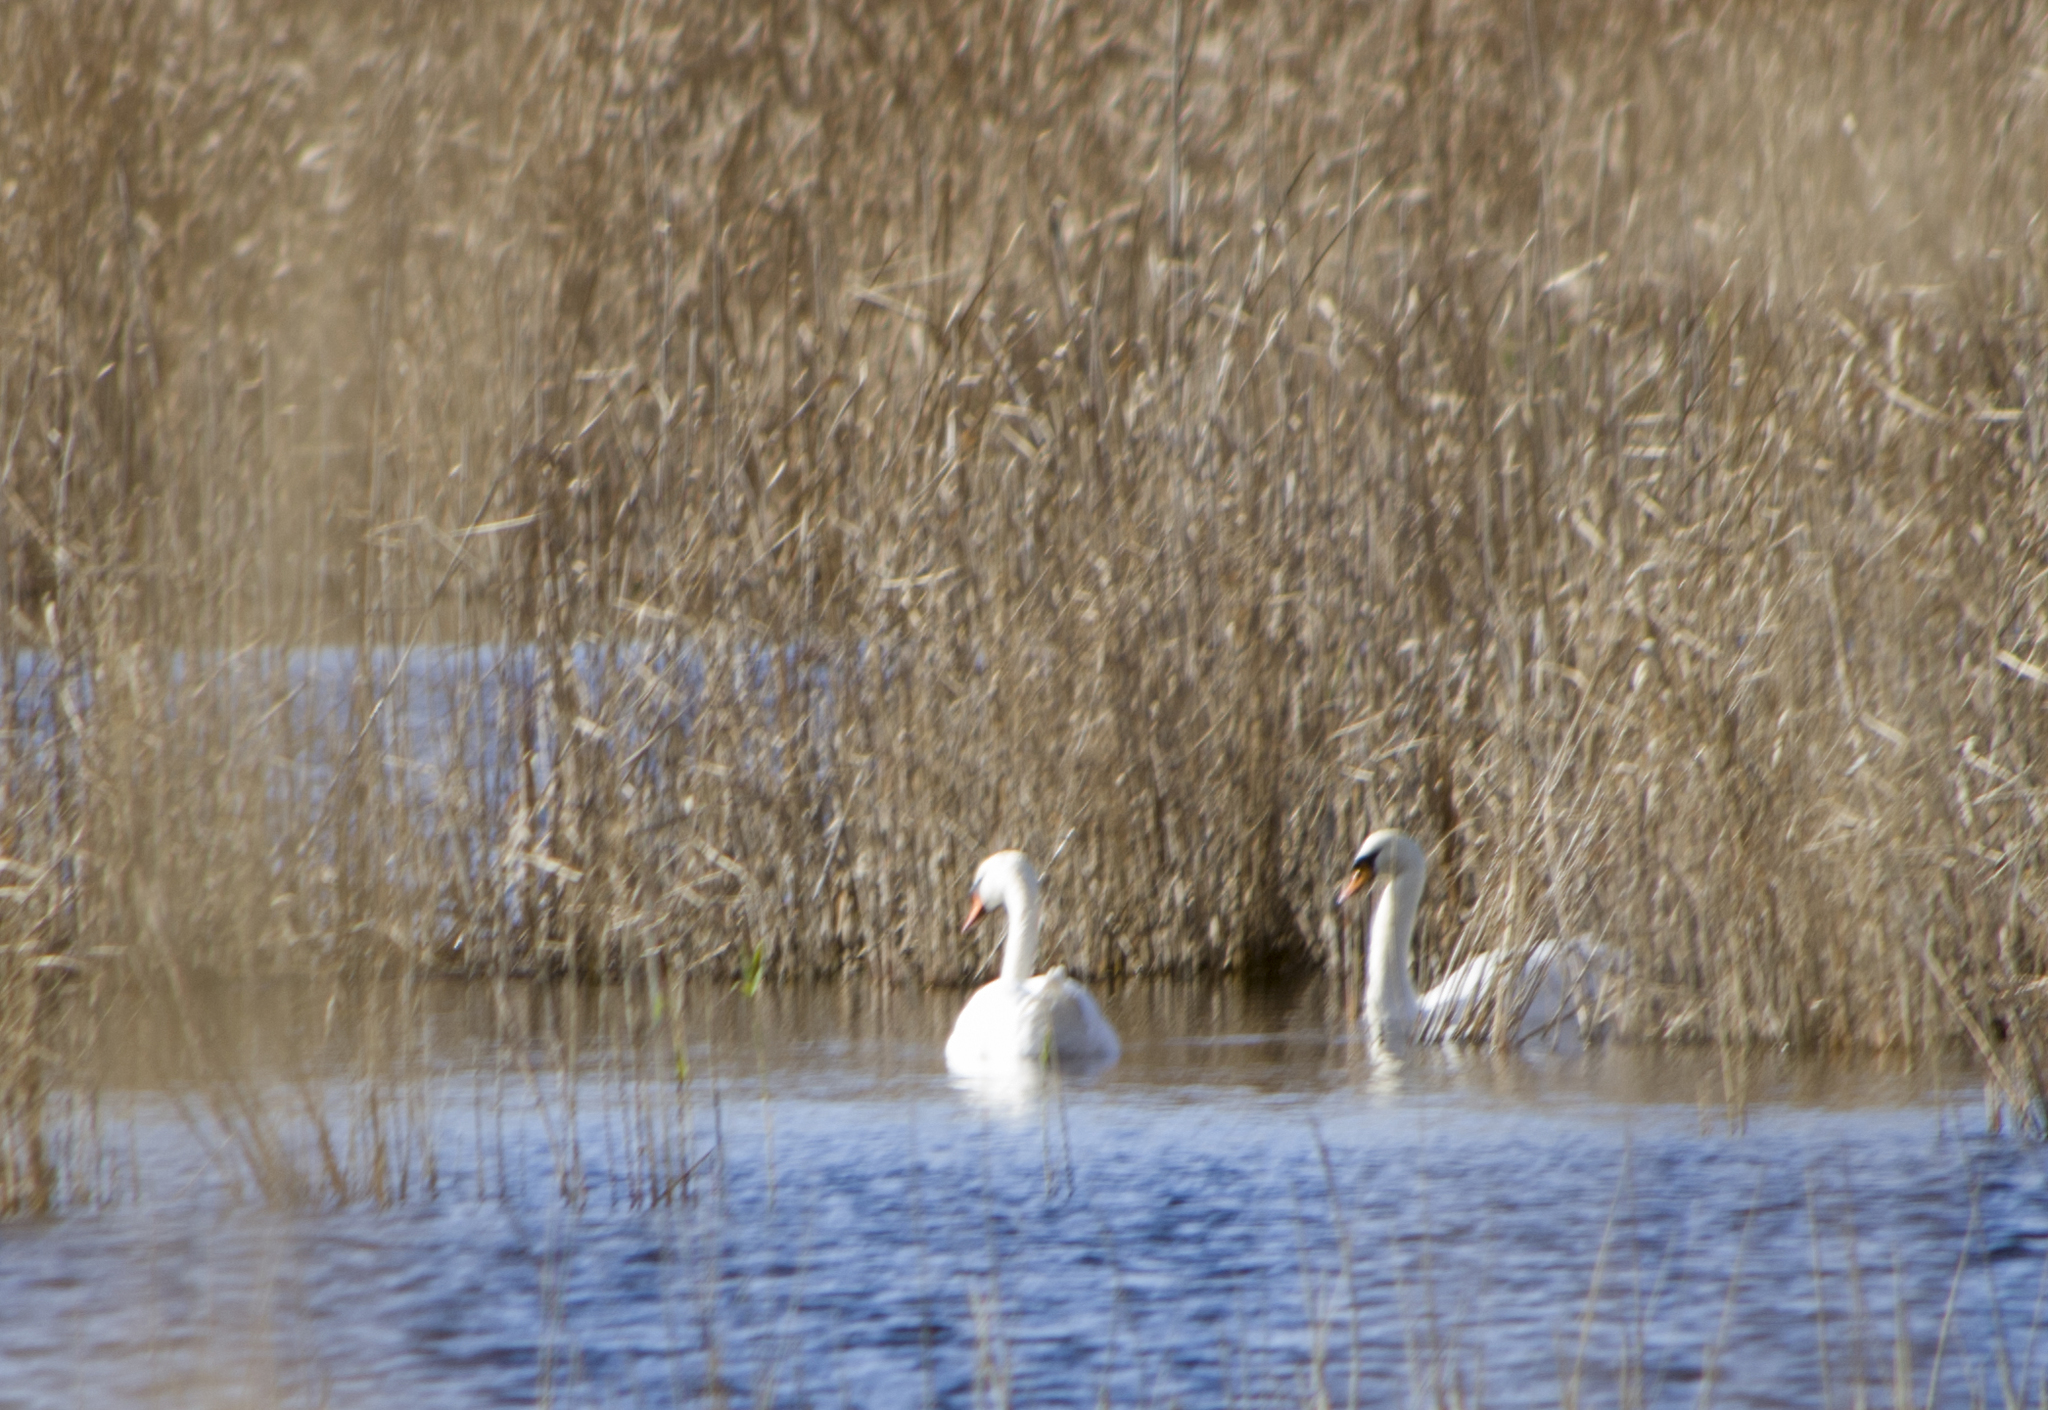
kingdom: Animalia
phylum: Chordata
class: Aves
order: Anseriformes
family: Anatidae
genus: Cygnus
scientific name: Cygnus olor
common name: Mute swan
